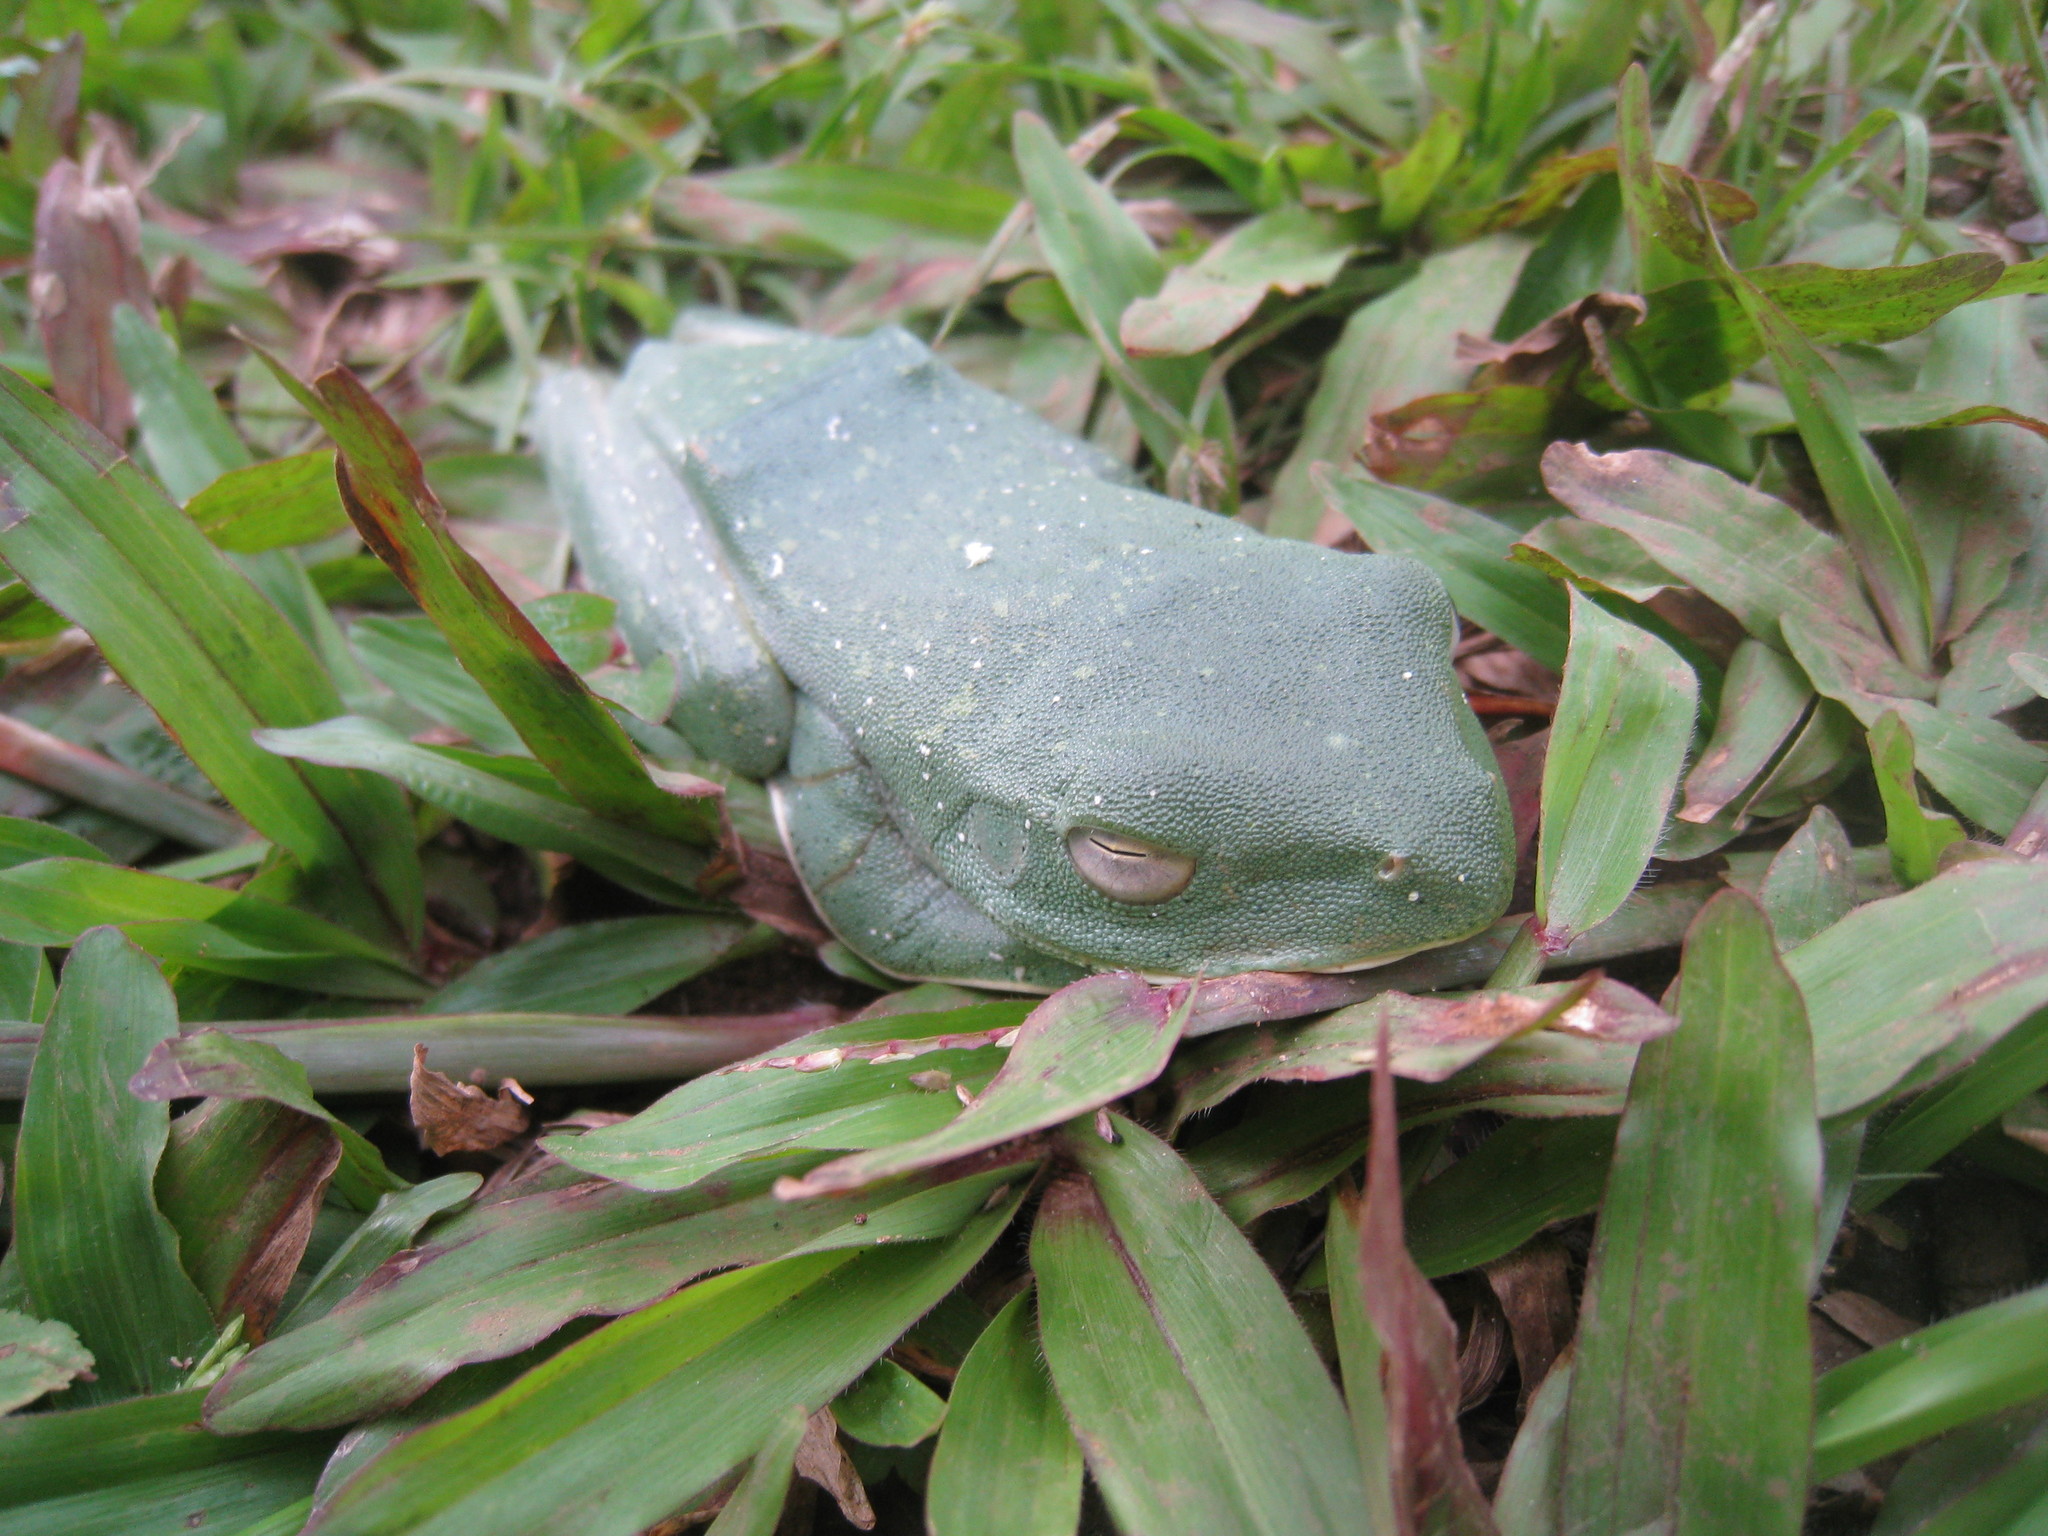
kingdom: Animalia
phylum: Chordata
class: Amphibia
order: Anura
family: Rhacophoridae
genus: Rhacophorus
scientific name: Rhacophorus malabaricus
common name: Malabar gliding frog
